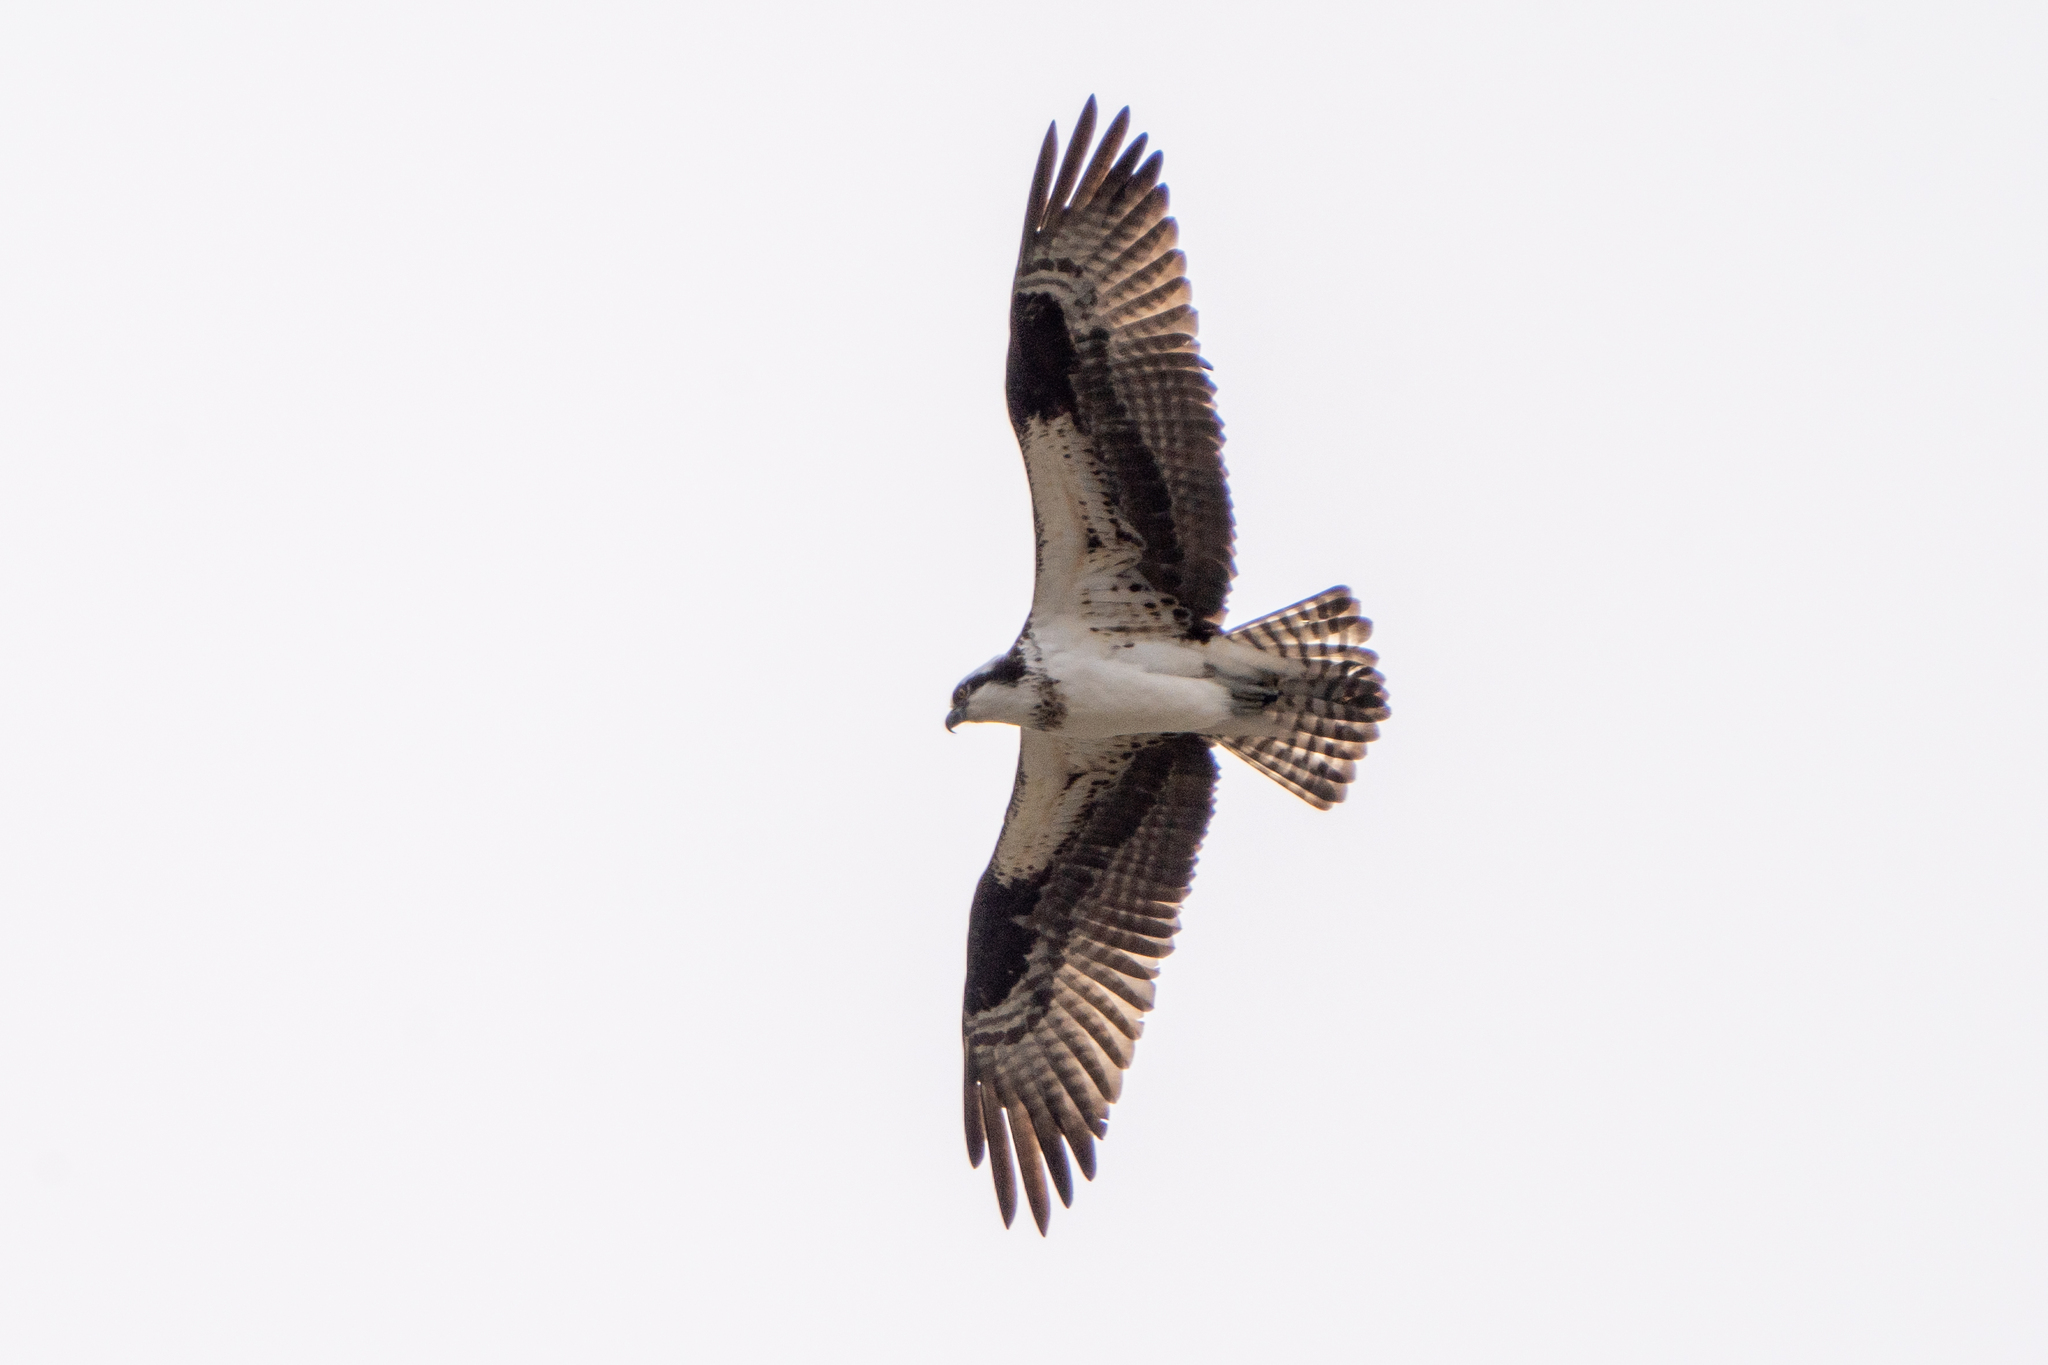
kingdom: Animalia
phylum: Chordata
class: Aves
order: Accipitriformes
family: Pandionidae
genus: Pandion
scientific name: Pandion haliaetus
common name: Osprey
